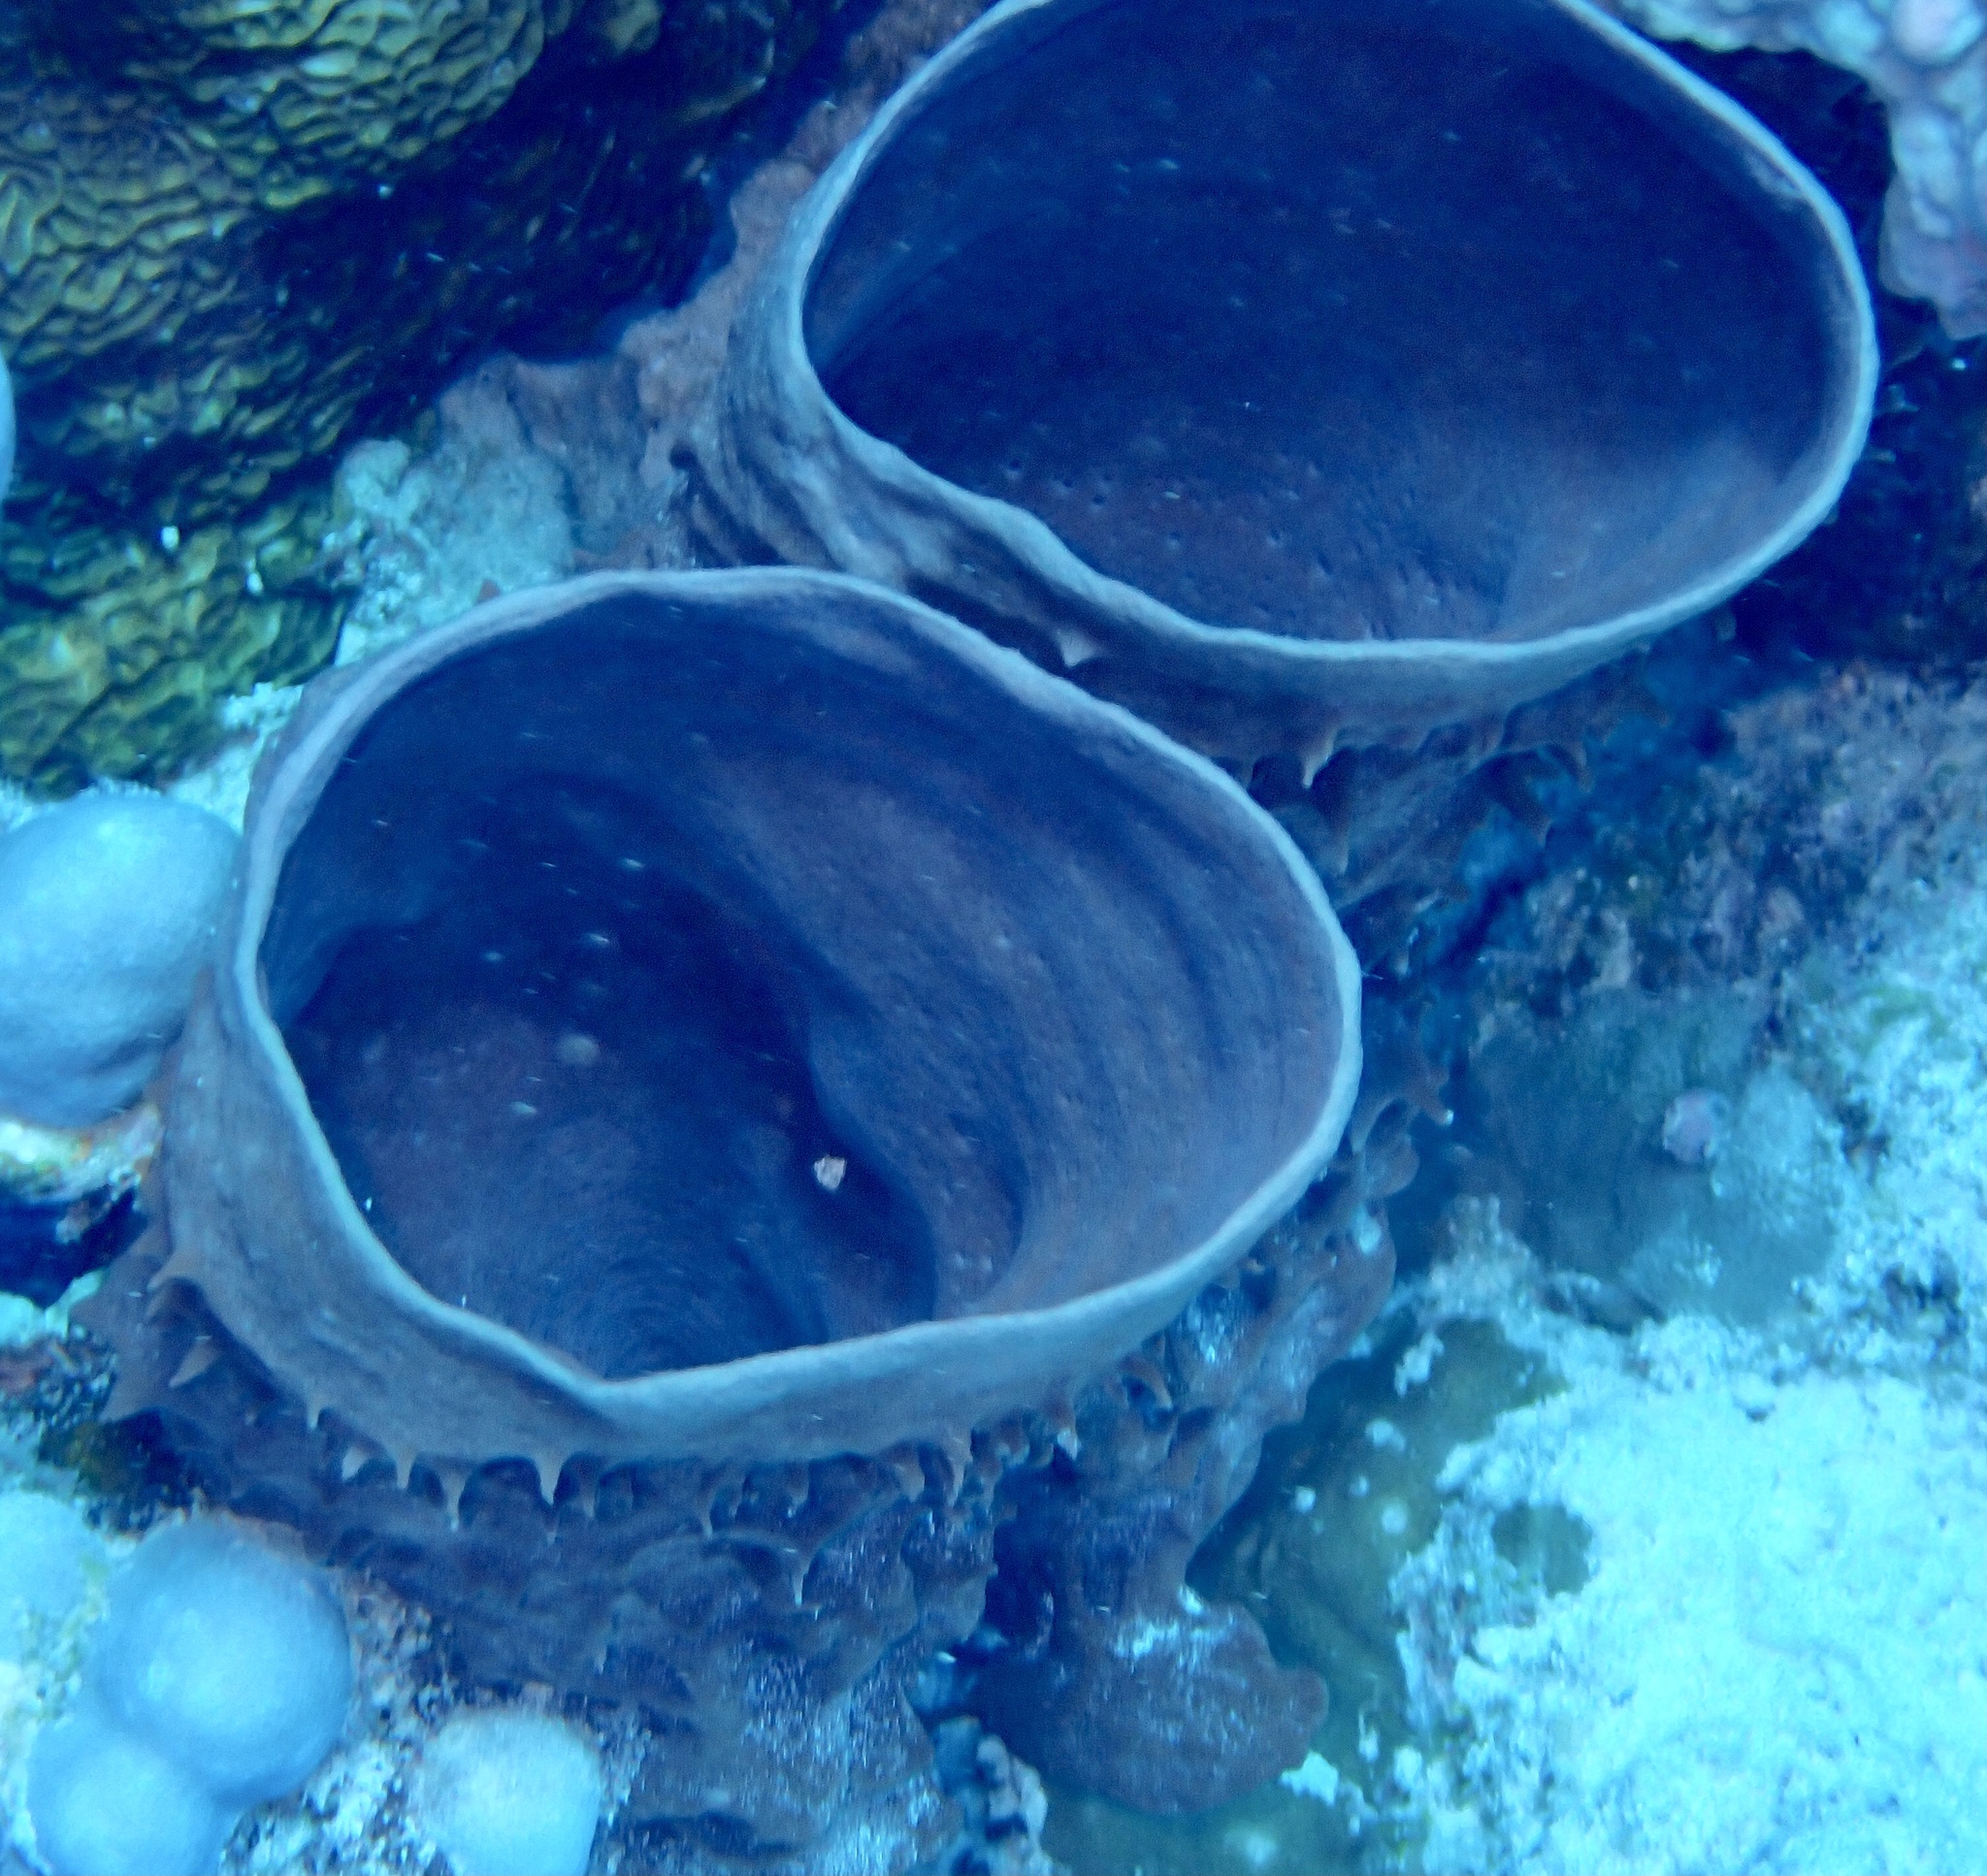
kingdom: Animalia
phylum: Porifera
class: Demospongiae
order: Haplosclerida
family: Callyspongiidae
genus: Callyspongia
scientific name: Callyspongia crassa
